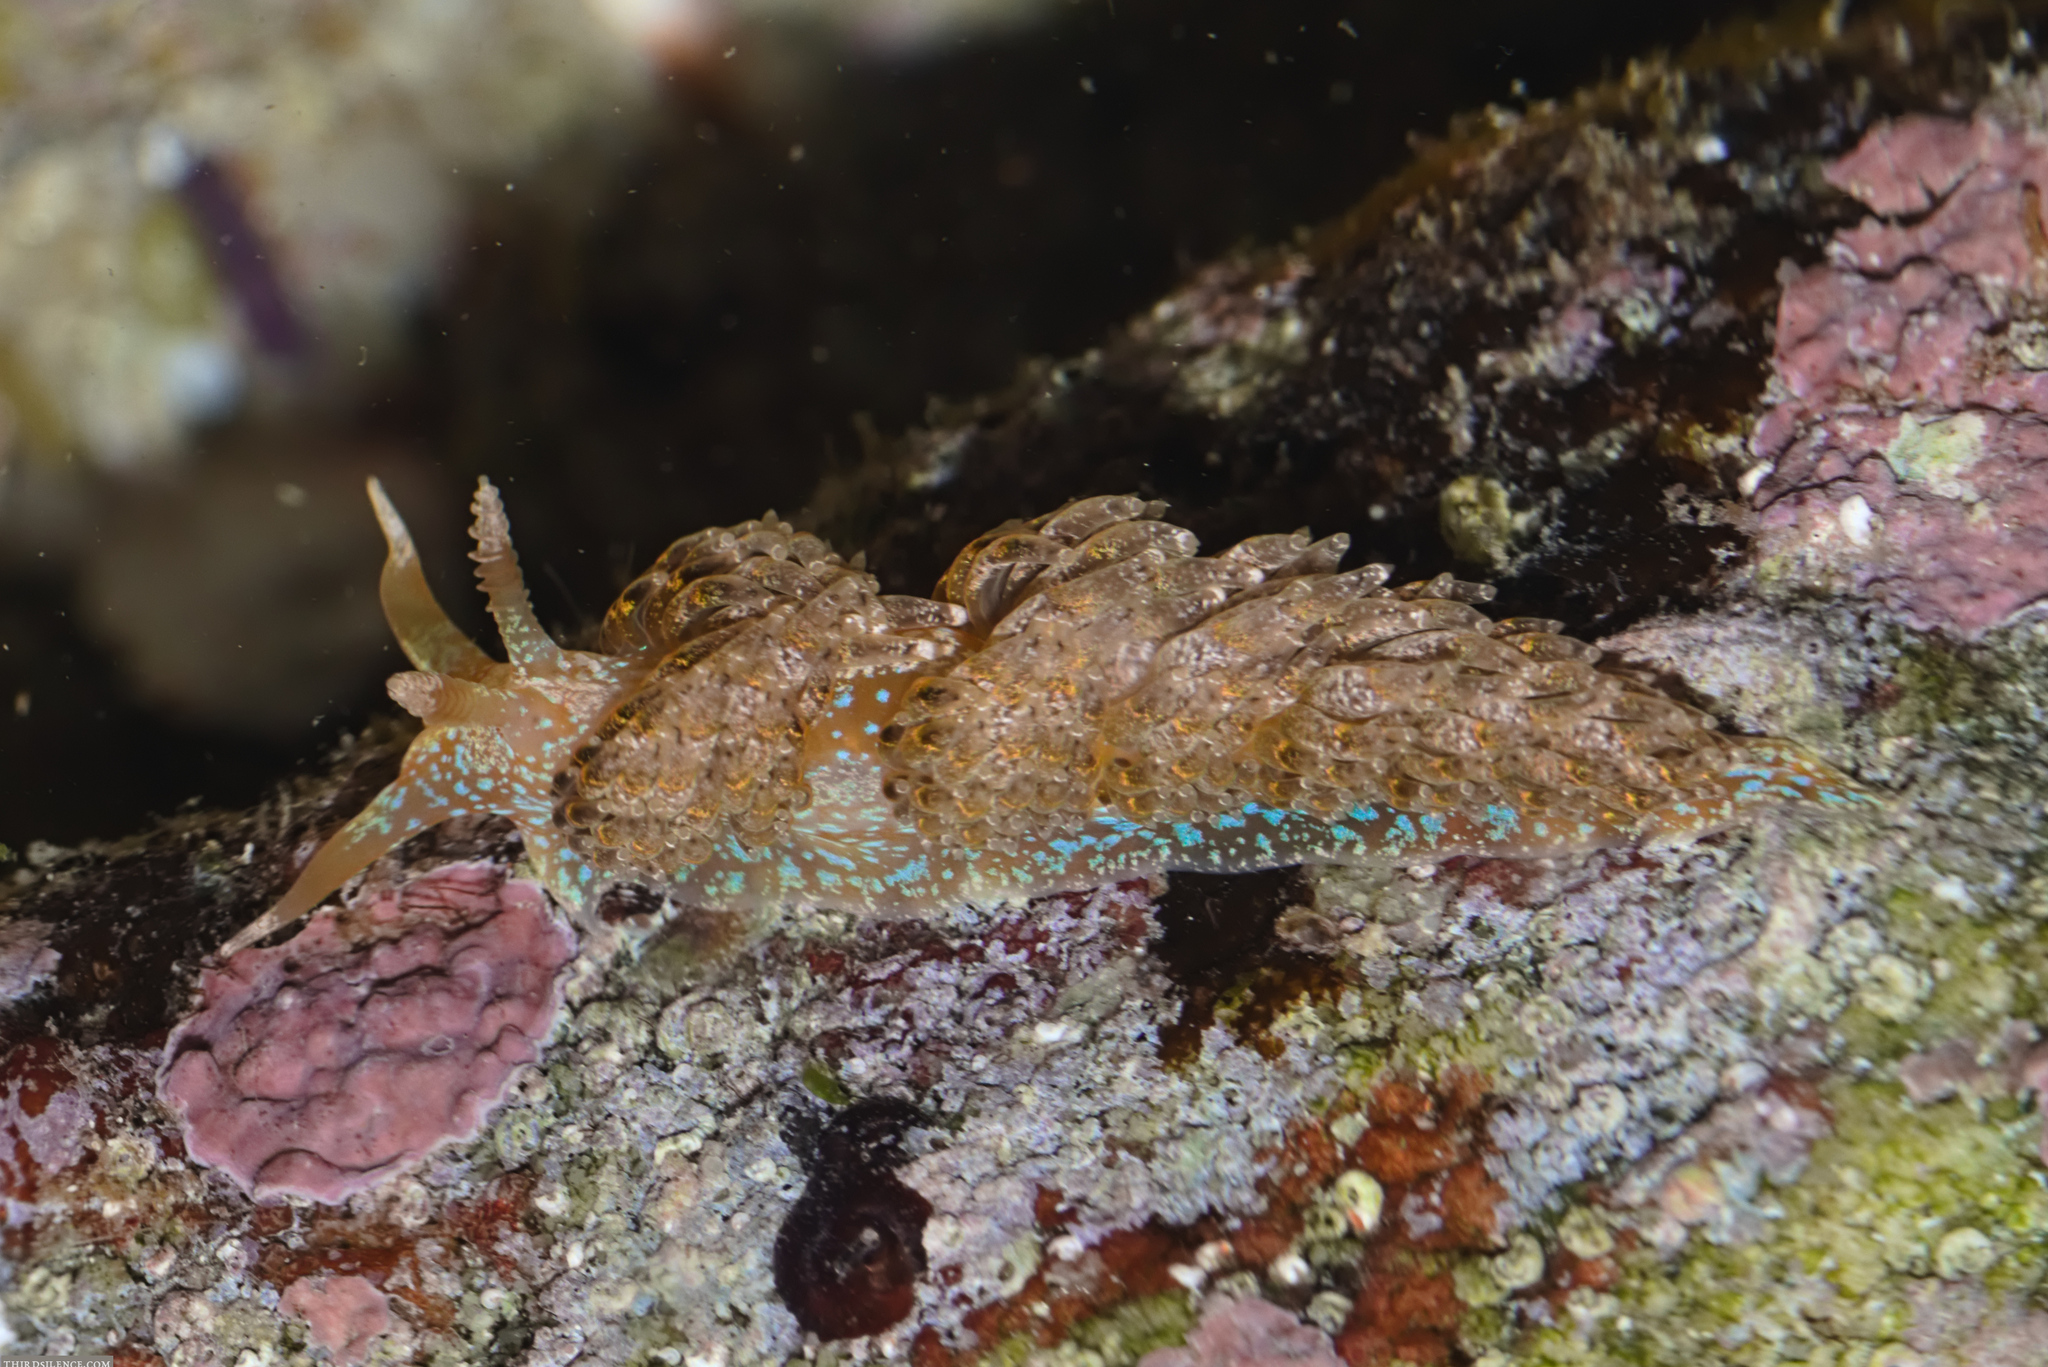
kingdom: Animalia
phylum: Mollusca
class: Gastropoda
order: Nudibranchia
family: Facelinidae
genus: Austraeolis
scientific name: Austraeolis ornata
